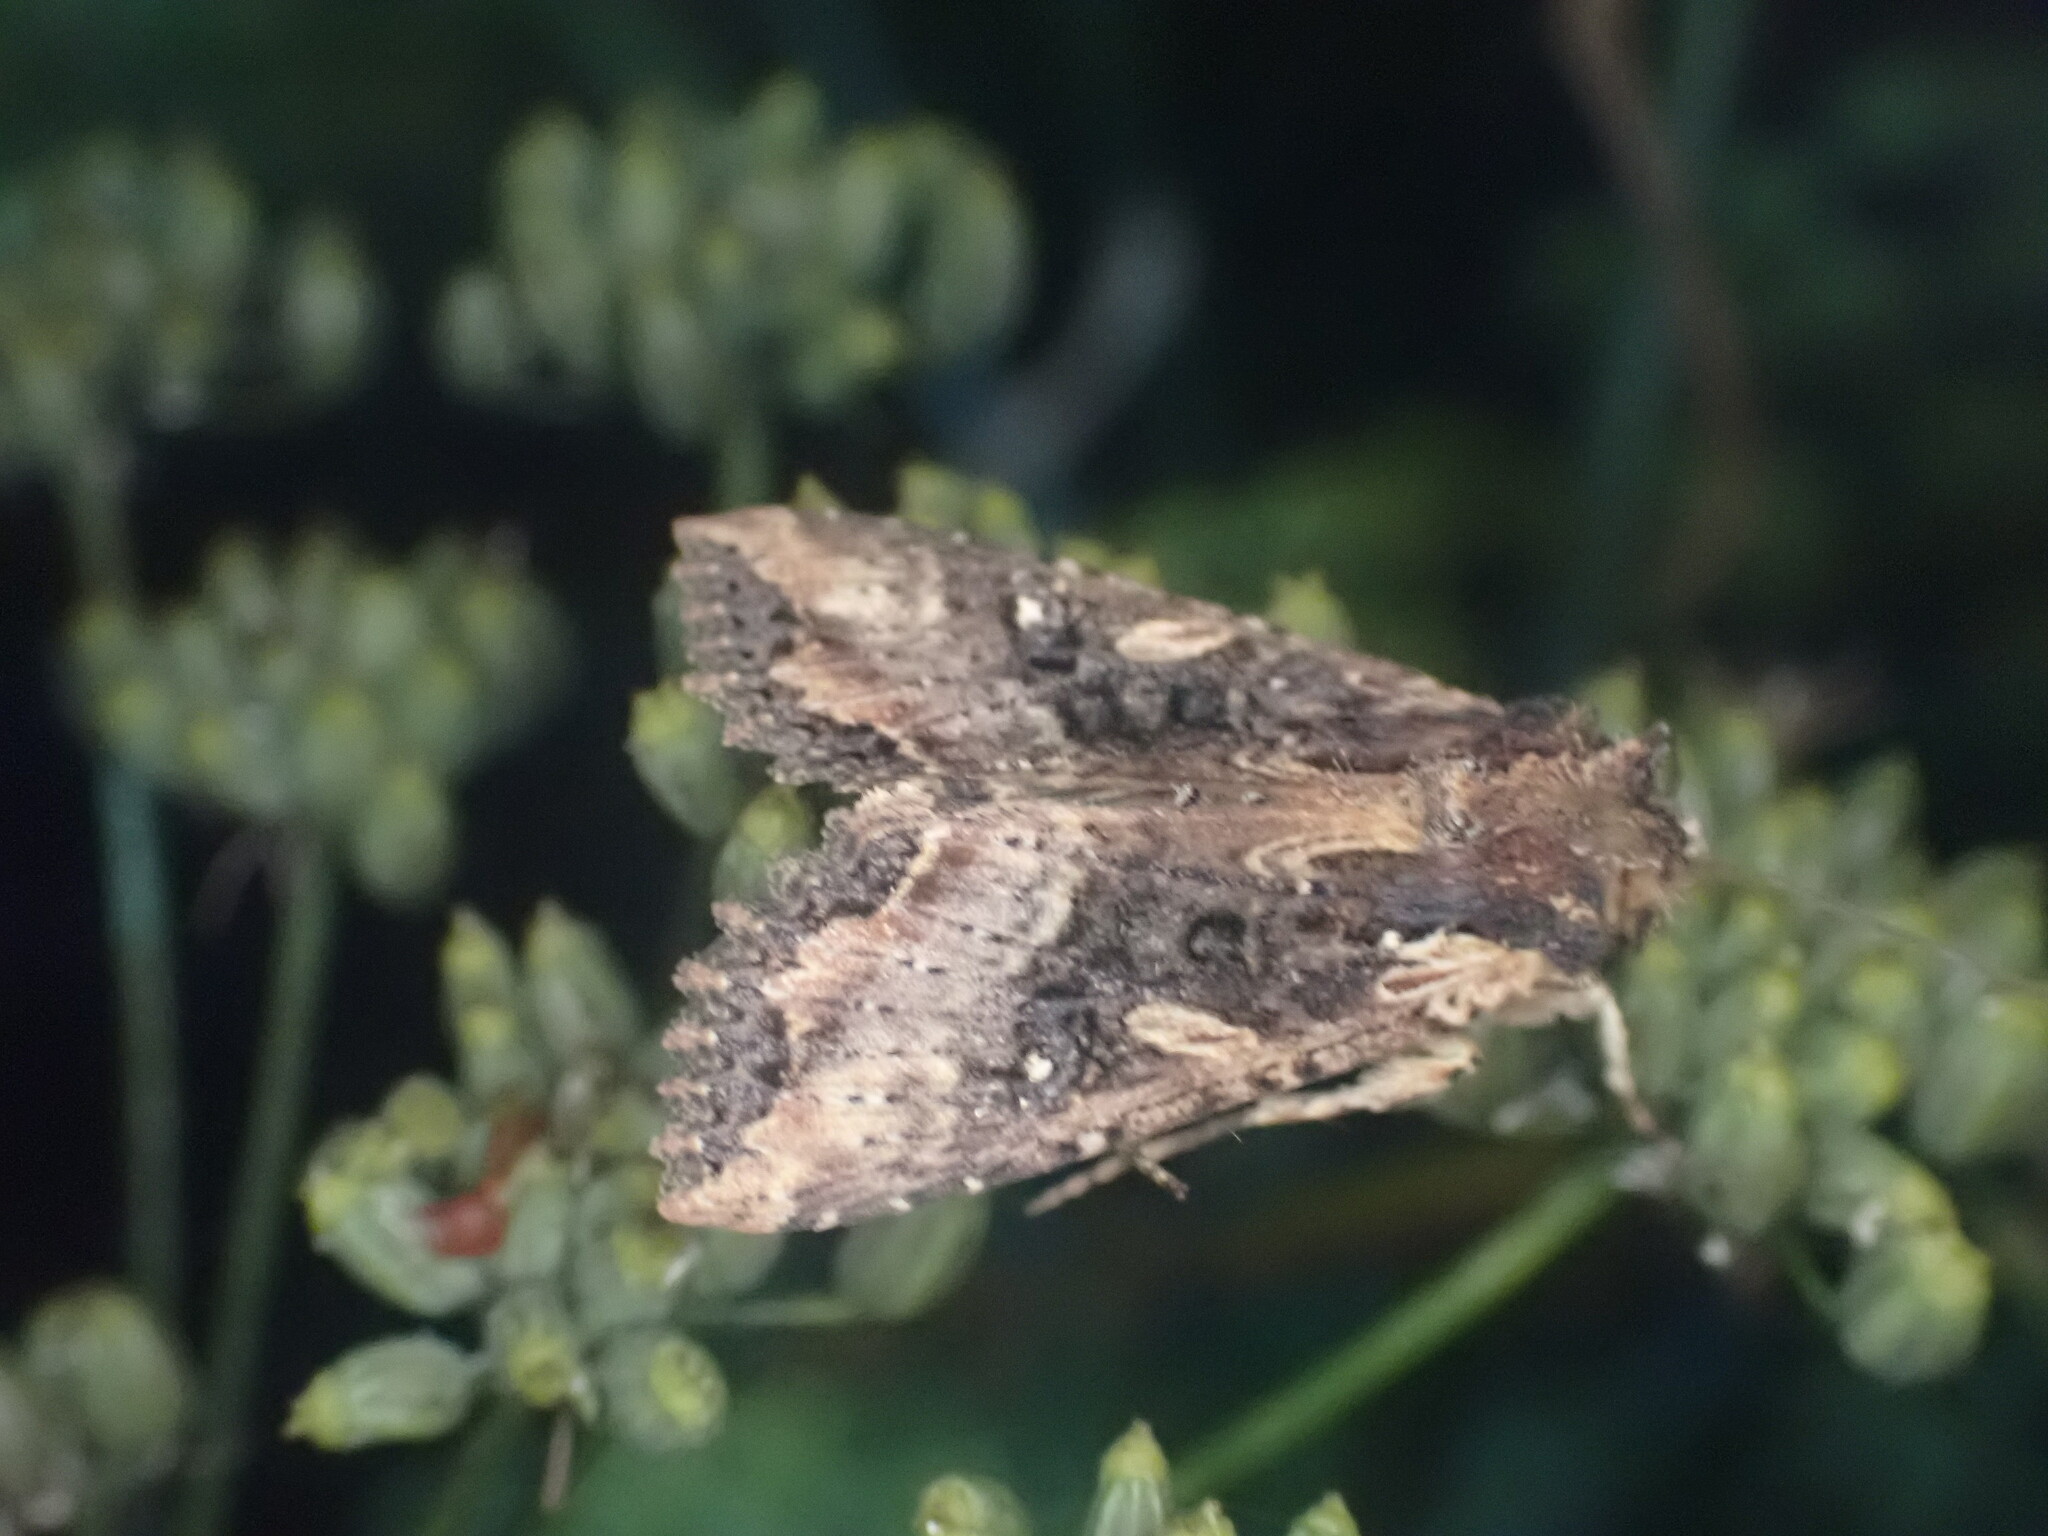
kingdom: Animalia
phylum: Arthropoda
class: Insecta
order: Lepidoptera
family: Noctuidae
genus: Meterana
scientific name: Meterana stipata
